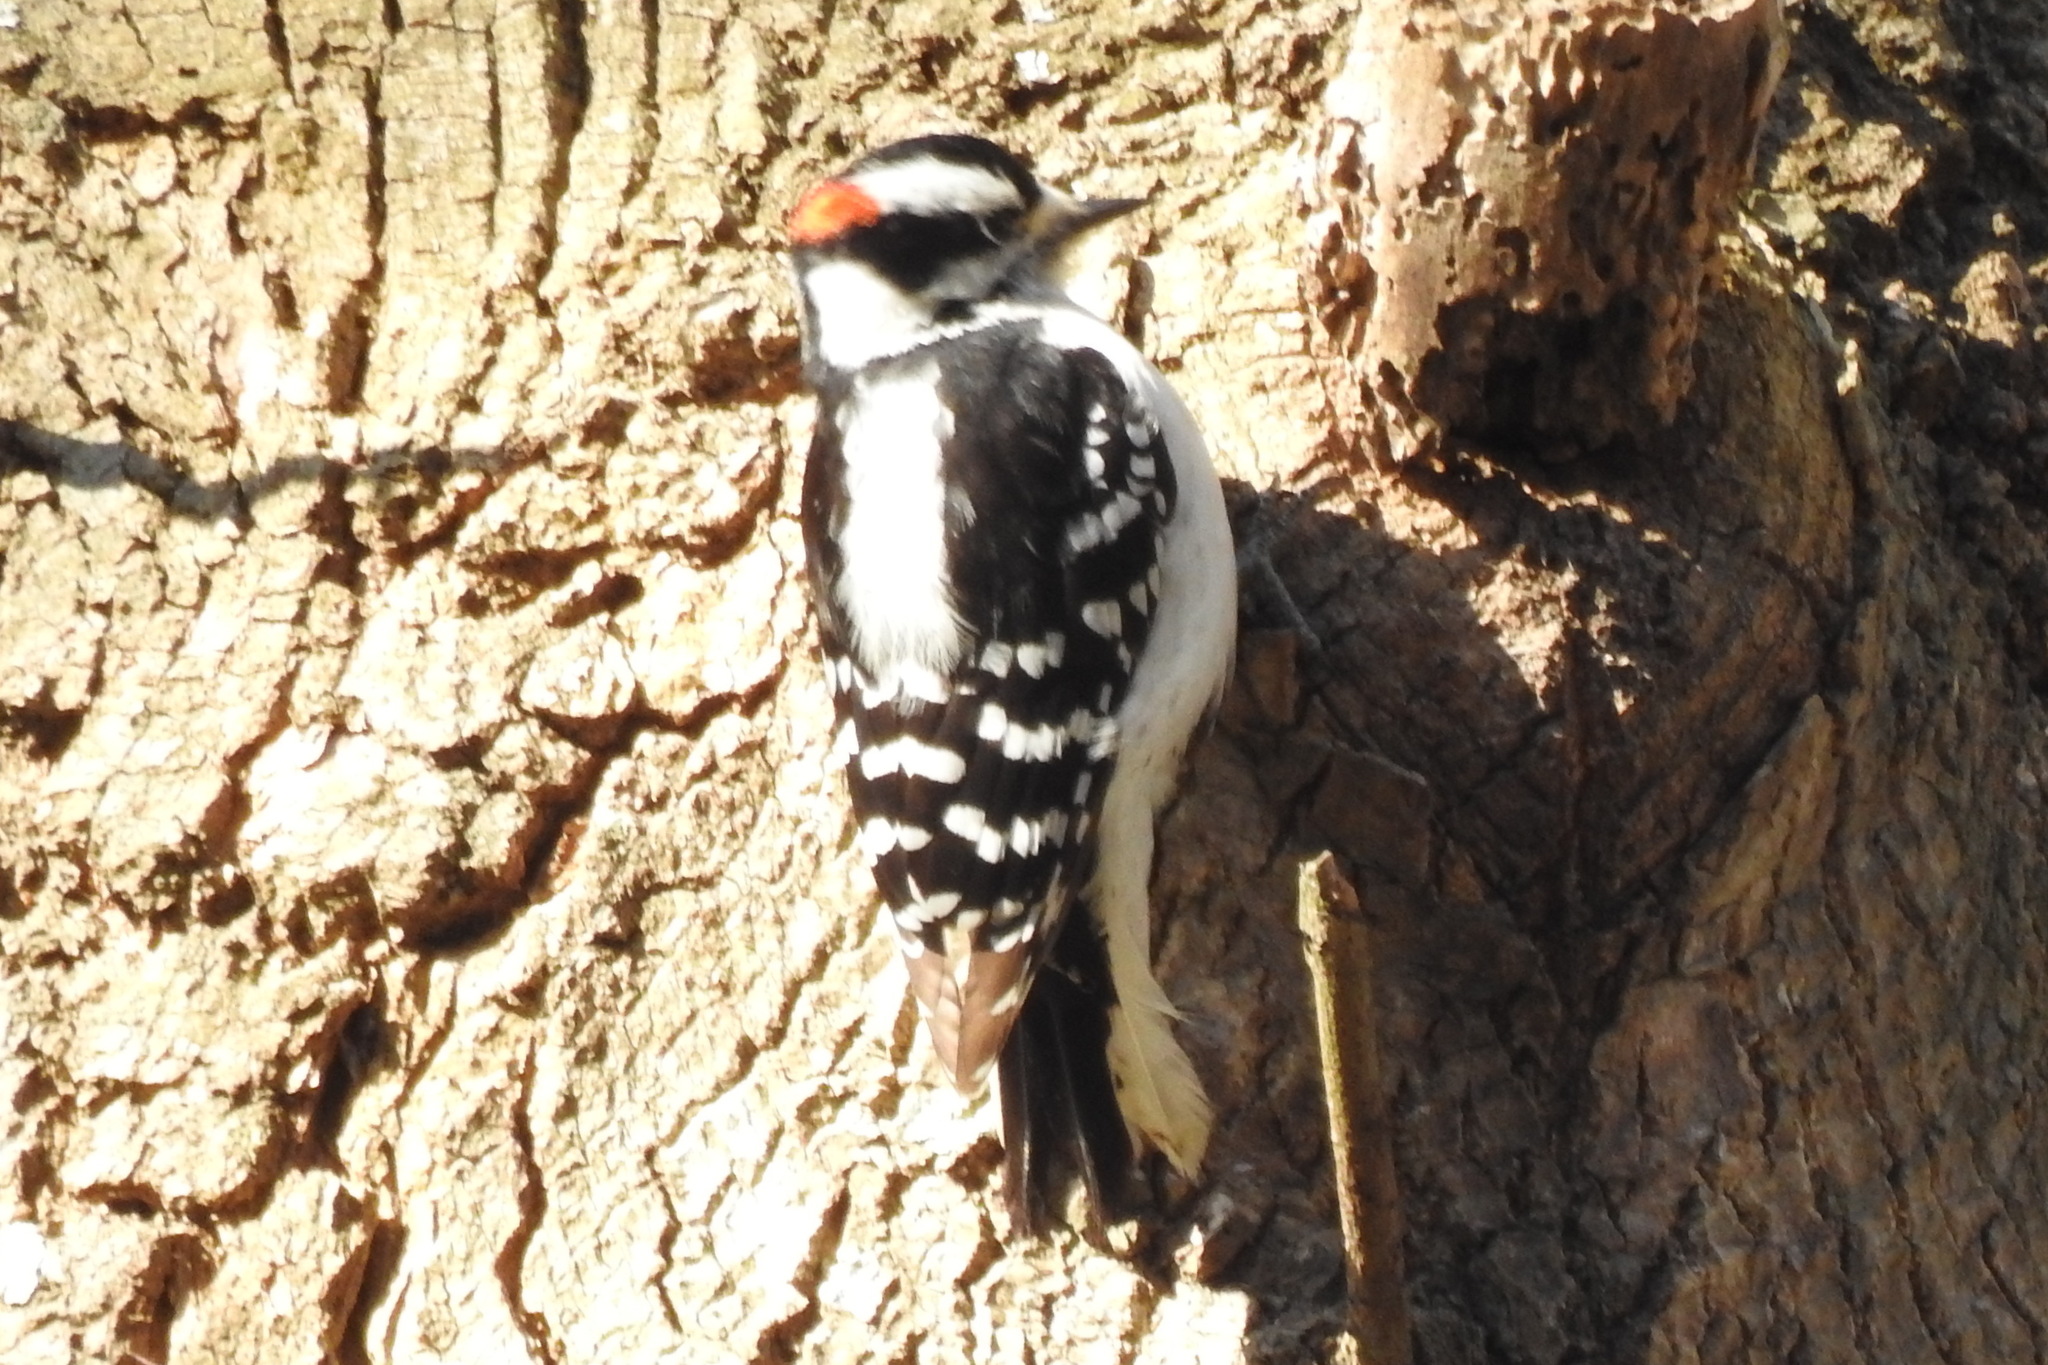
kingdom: Animalia
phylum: Chordata
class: Aves
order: Piciformes
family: Picidae
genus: Dryobates
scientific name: Dryobates pubescens
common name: Downy woodpecker
